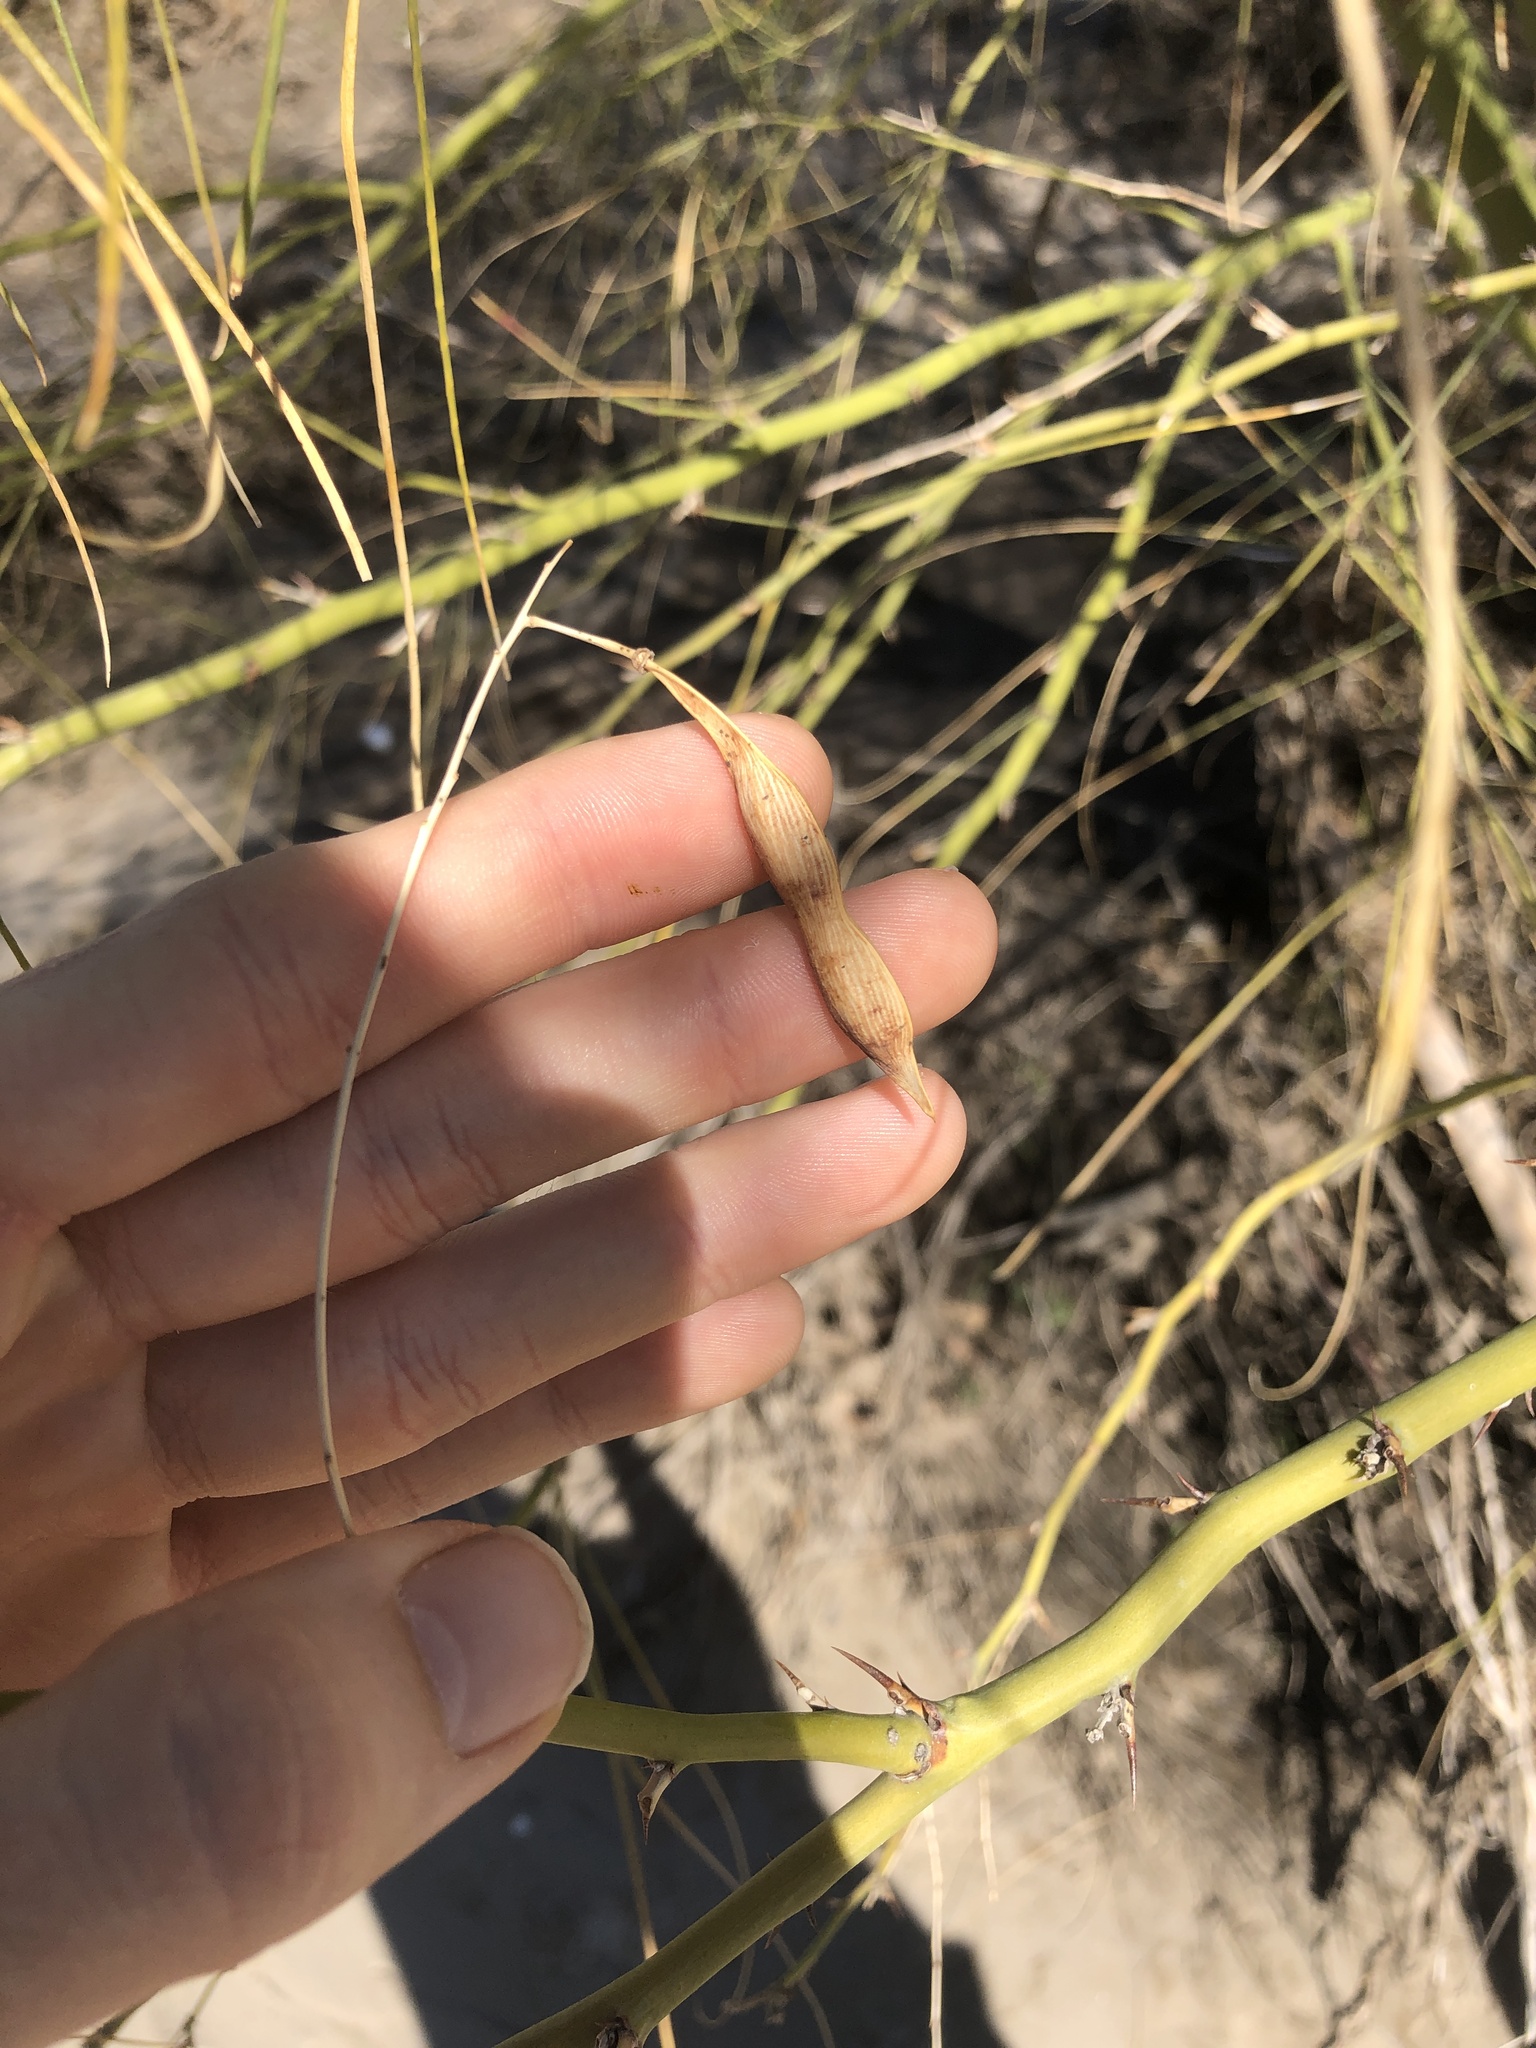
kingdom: Plantae
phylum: Tracheophyta
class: Magnoliopsida
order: Fabales
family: Fabaceae
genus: Parkinsonia
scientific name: Parkinsonia aculeata
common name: Jerusalem thorn
